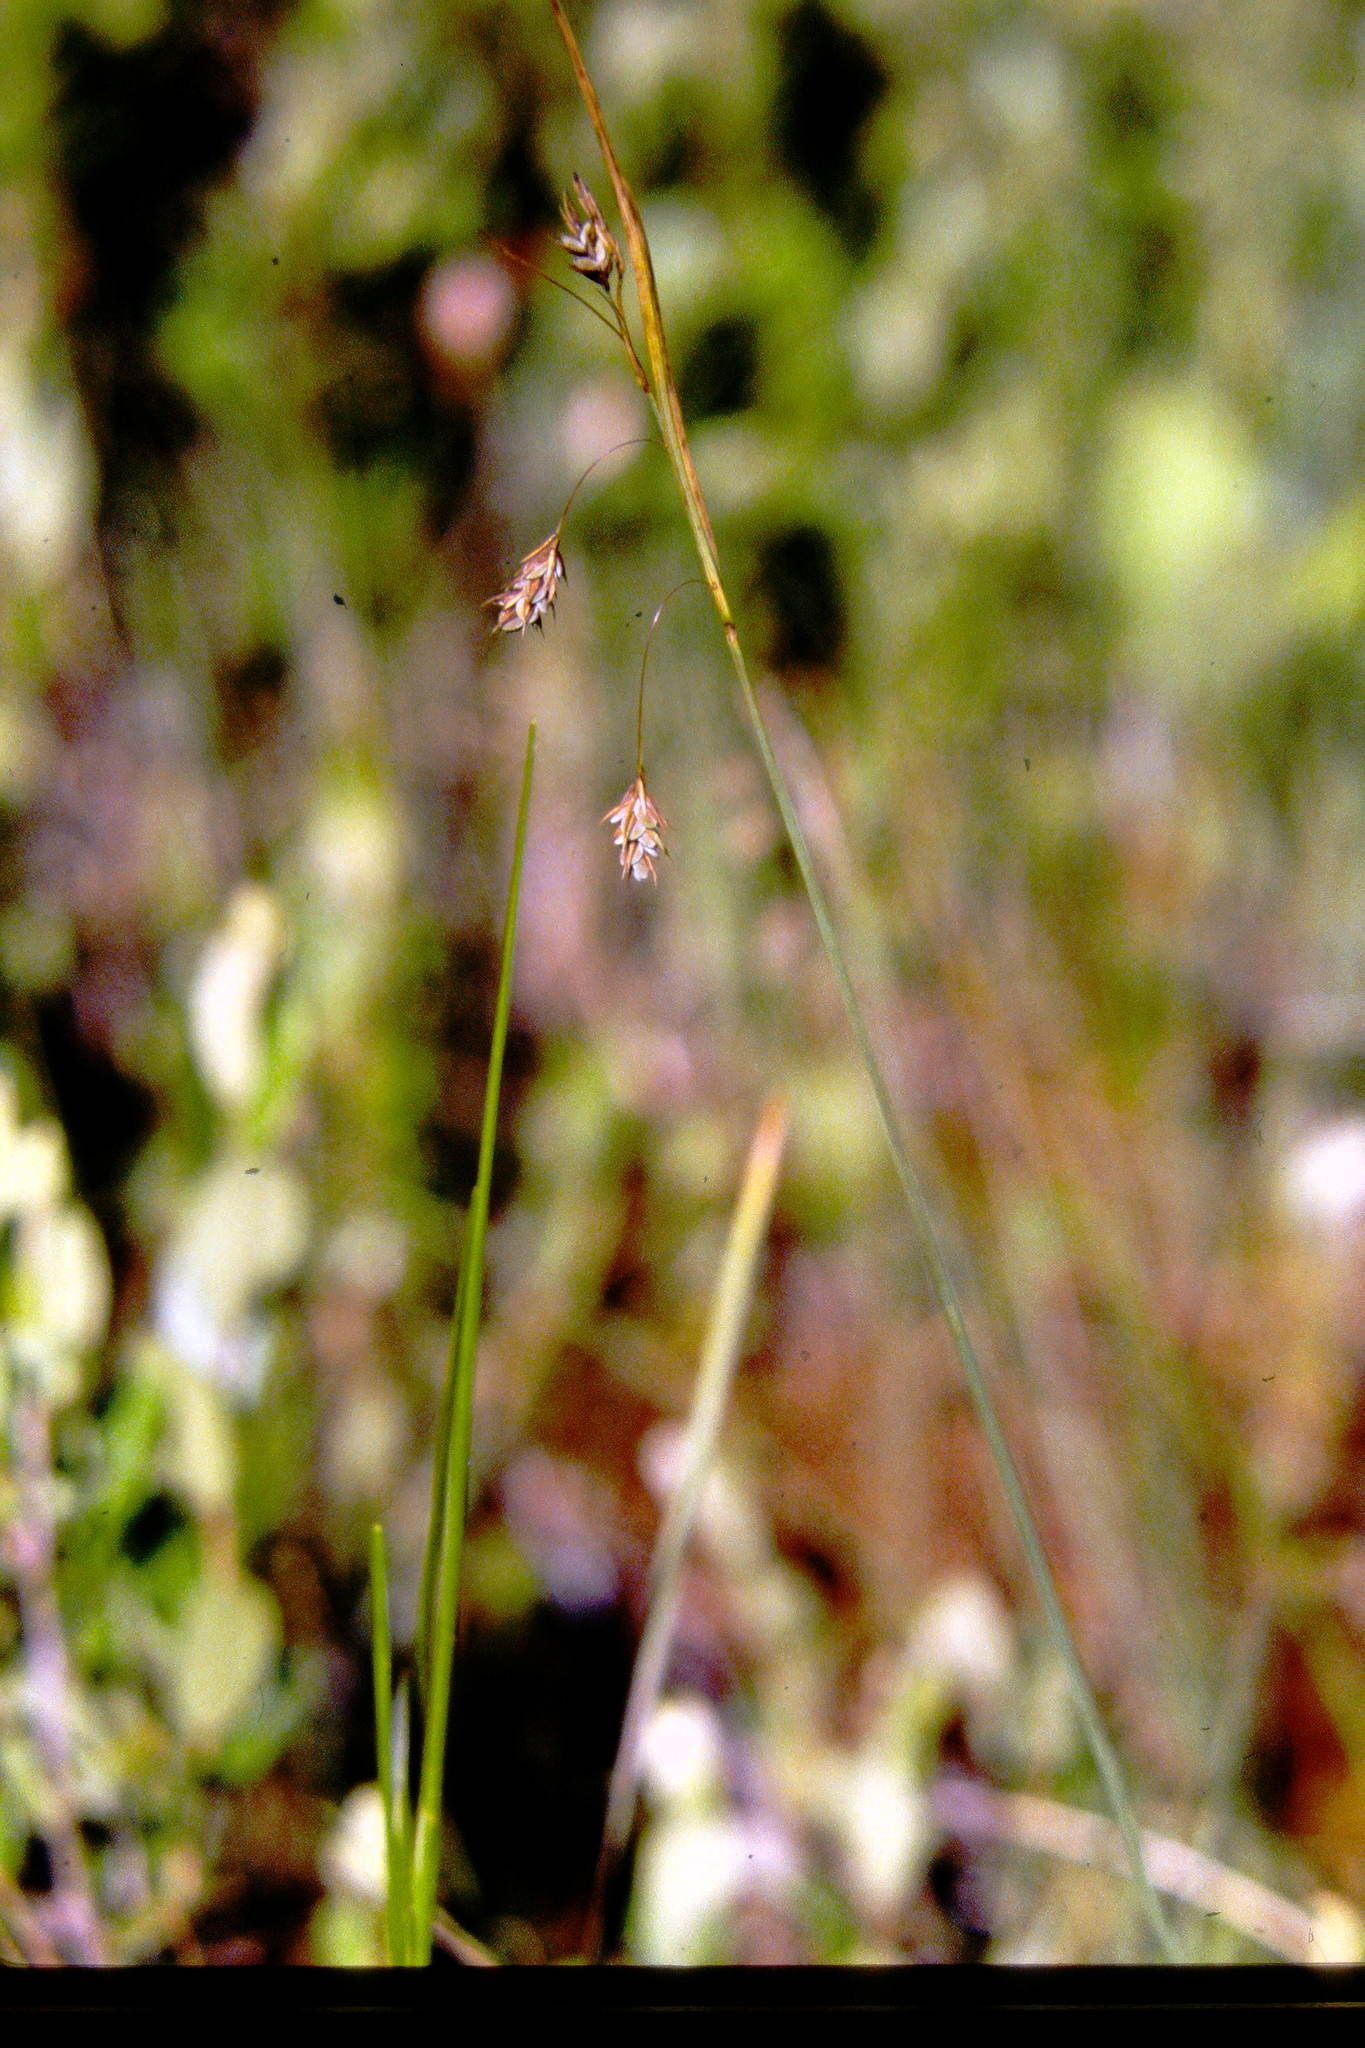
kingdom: Plantae
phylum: Tracheophyta
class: Liliopsida
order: Poales
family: Cyperaceae
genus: Carex
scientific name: Carex magellanica
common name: Bog sedge
